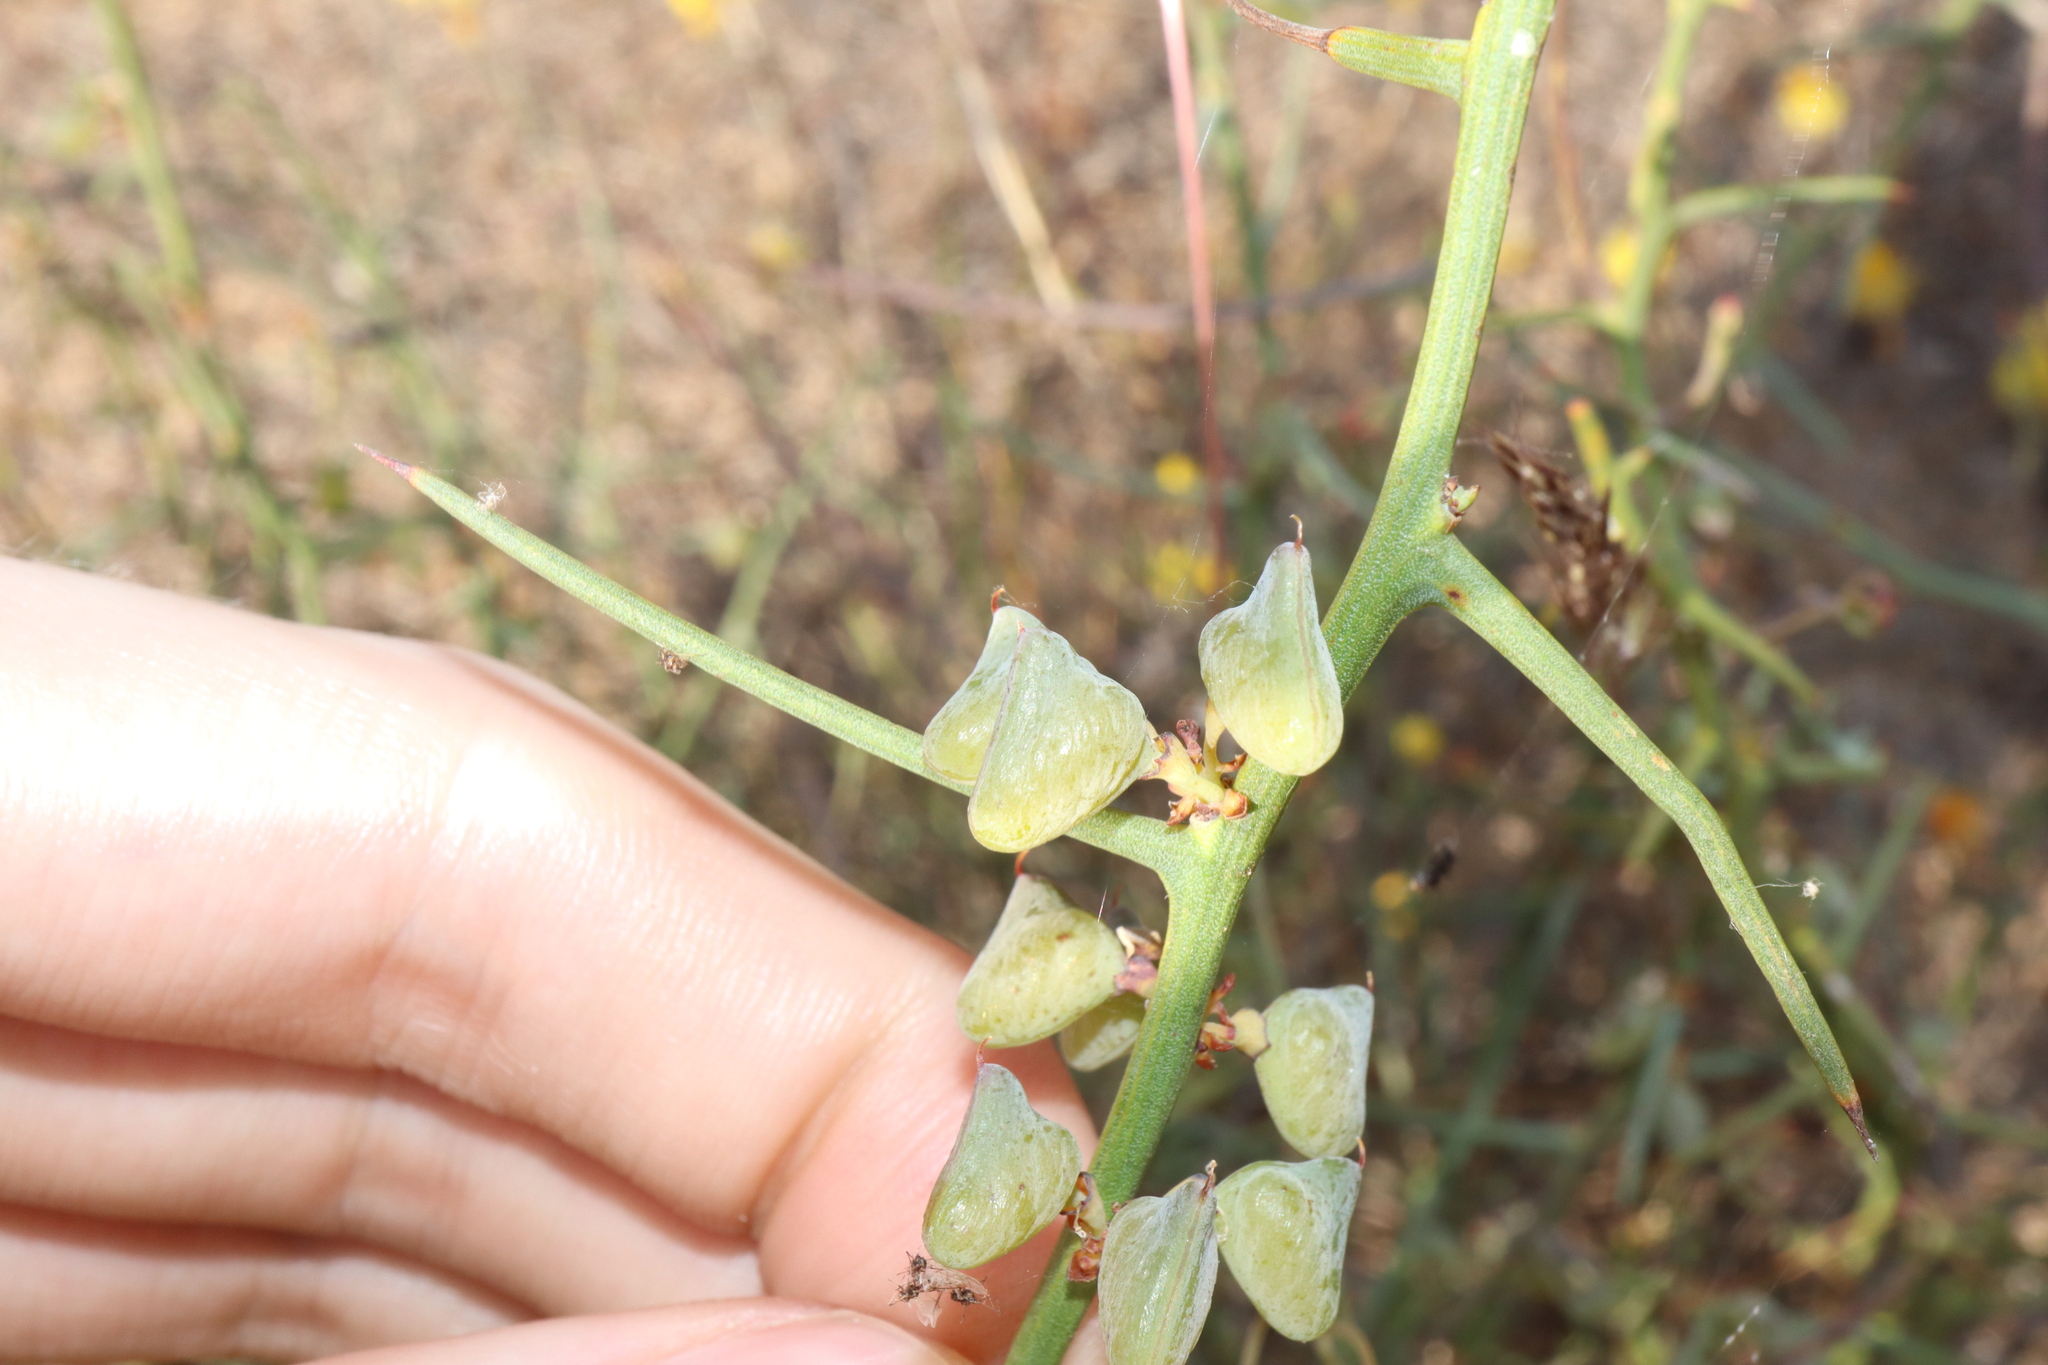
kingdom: Plantae
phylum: Tracheophyta
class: Magnoliopsida
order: Fabales
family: Fabaceae
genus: Daviesia
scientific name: Daviesia hakeoides
